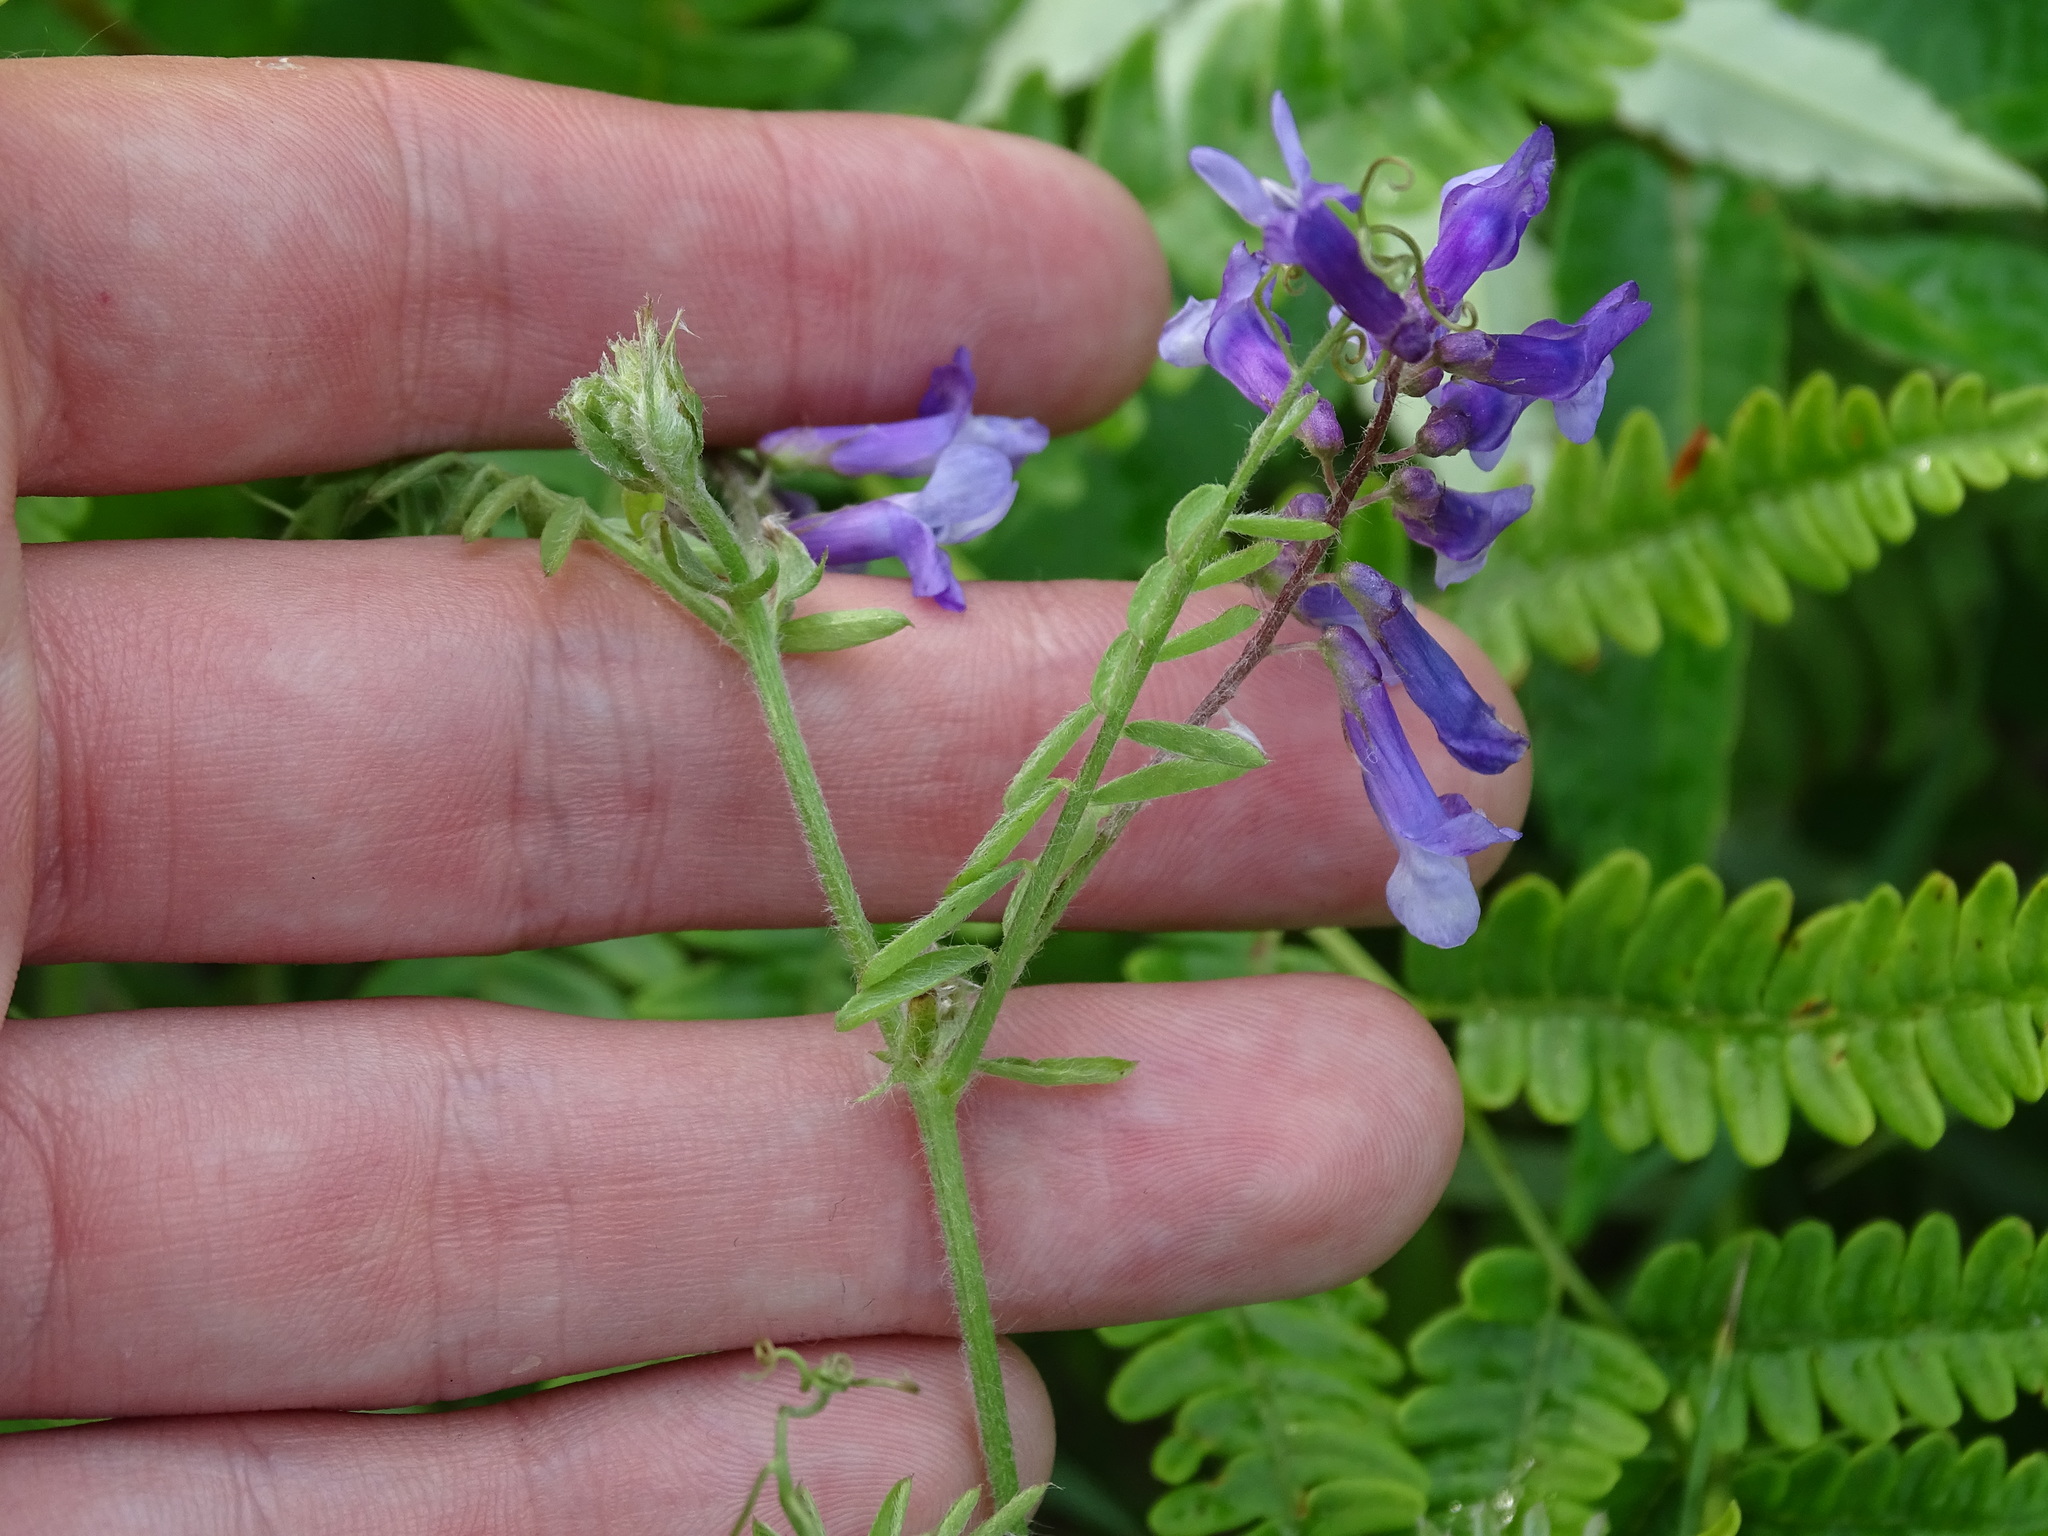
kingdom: Plantae
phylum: Tracheophyta
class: Magnoliopsida
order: Fabales
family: Fabaceae
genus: Vicia
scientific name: Vicia villosa
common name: Fodder vetch
